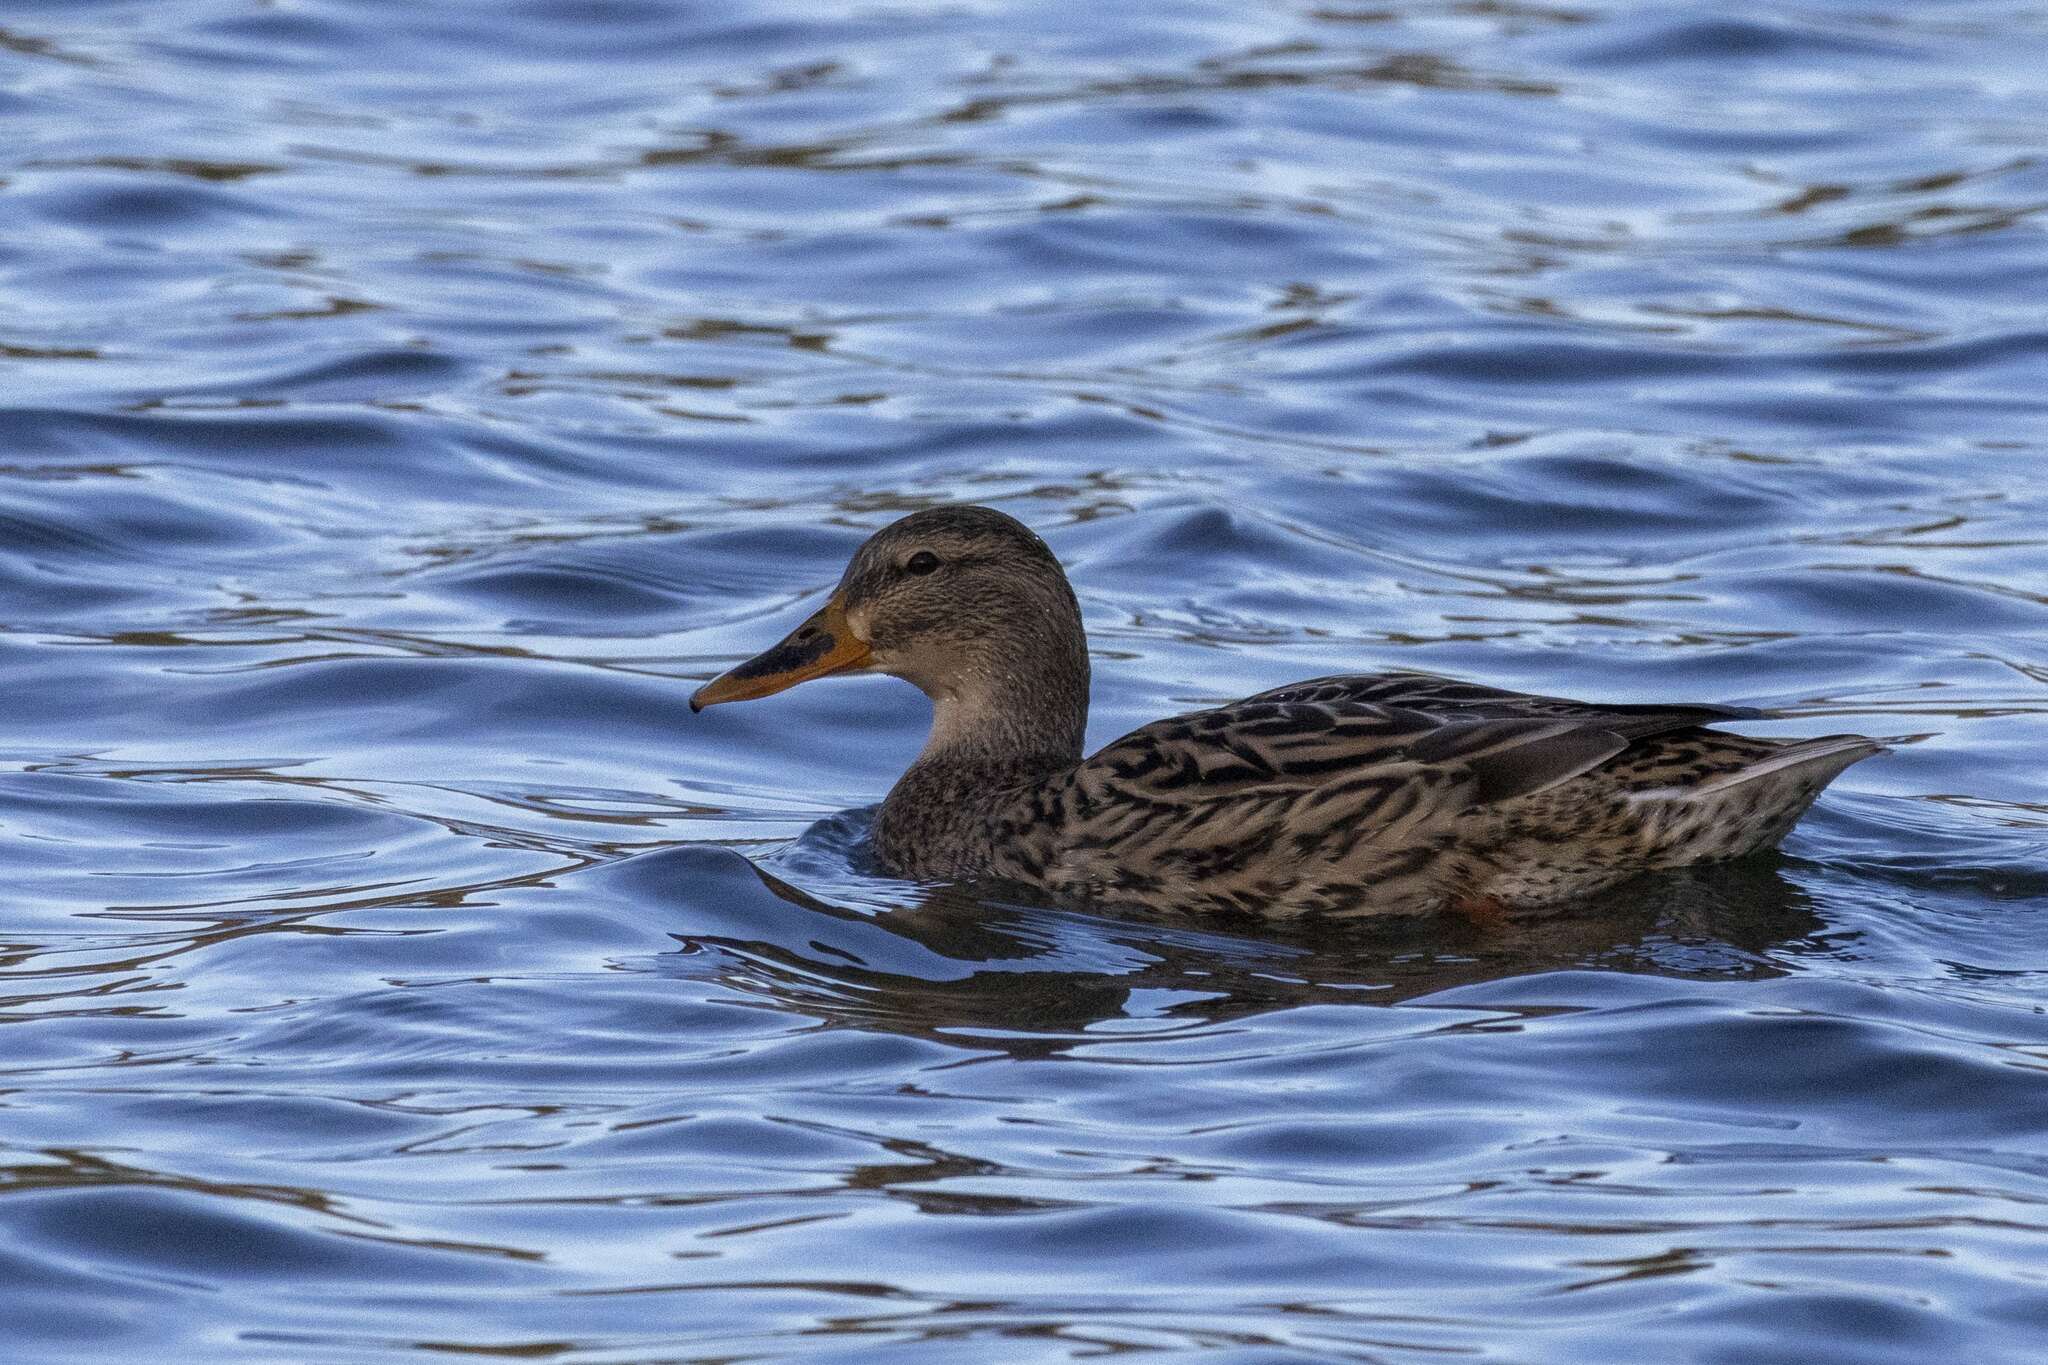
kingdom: Animalia
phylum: Chordata
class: Aves
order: Anseriformes
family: Anatidae
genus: Anas
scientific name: Anas platyrhynchos
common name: Mallard
